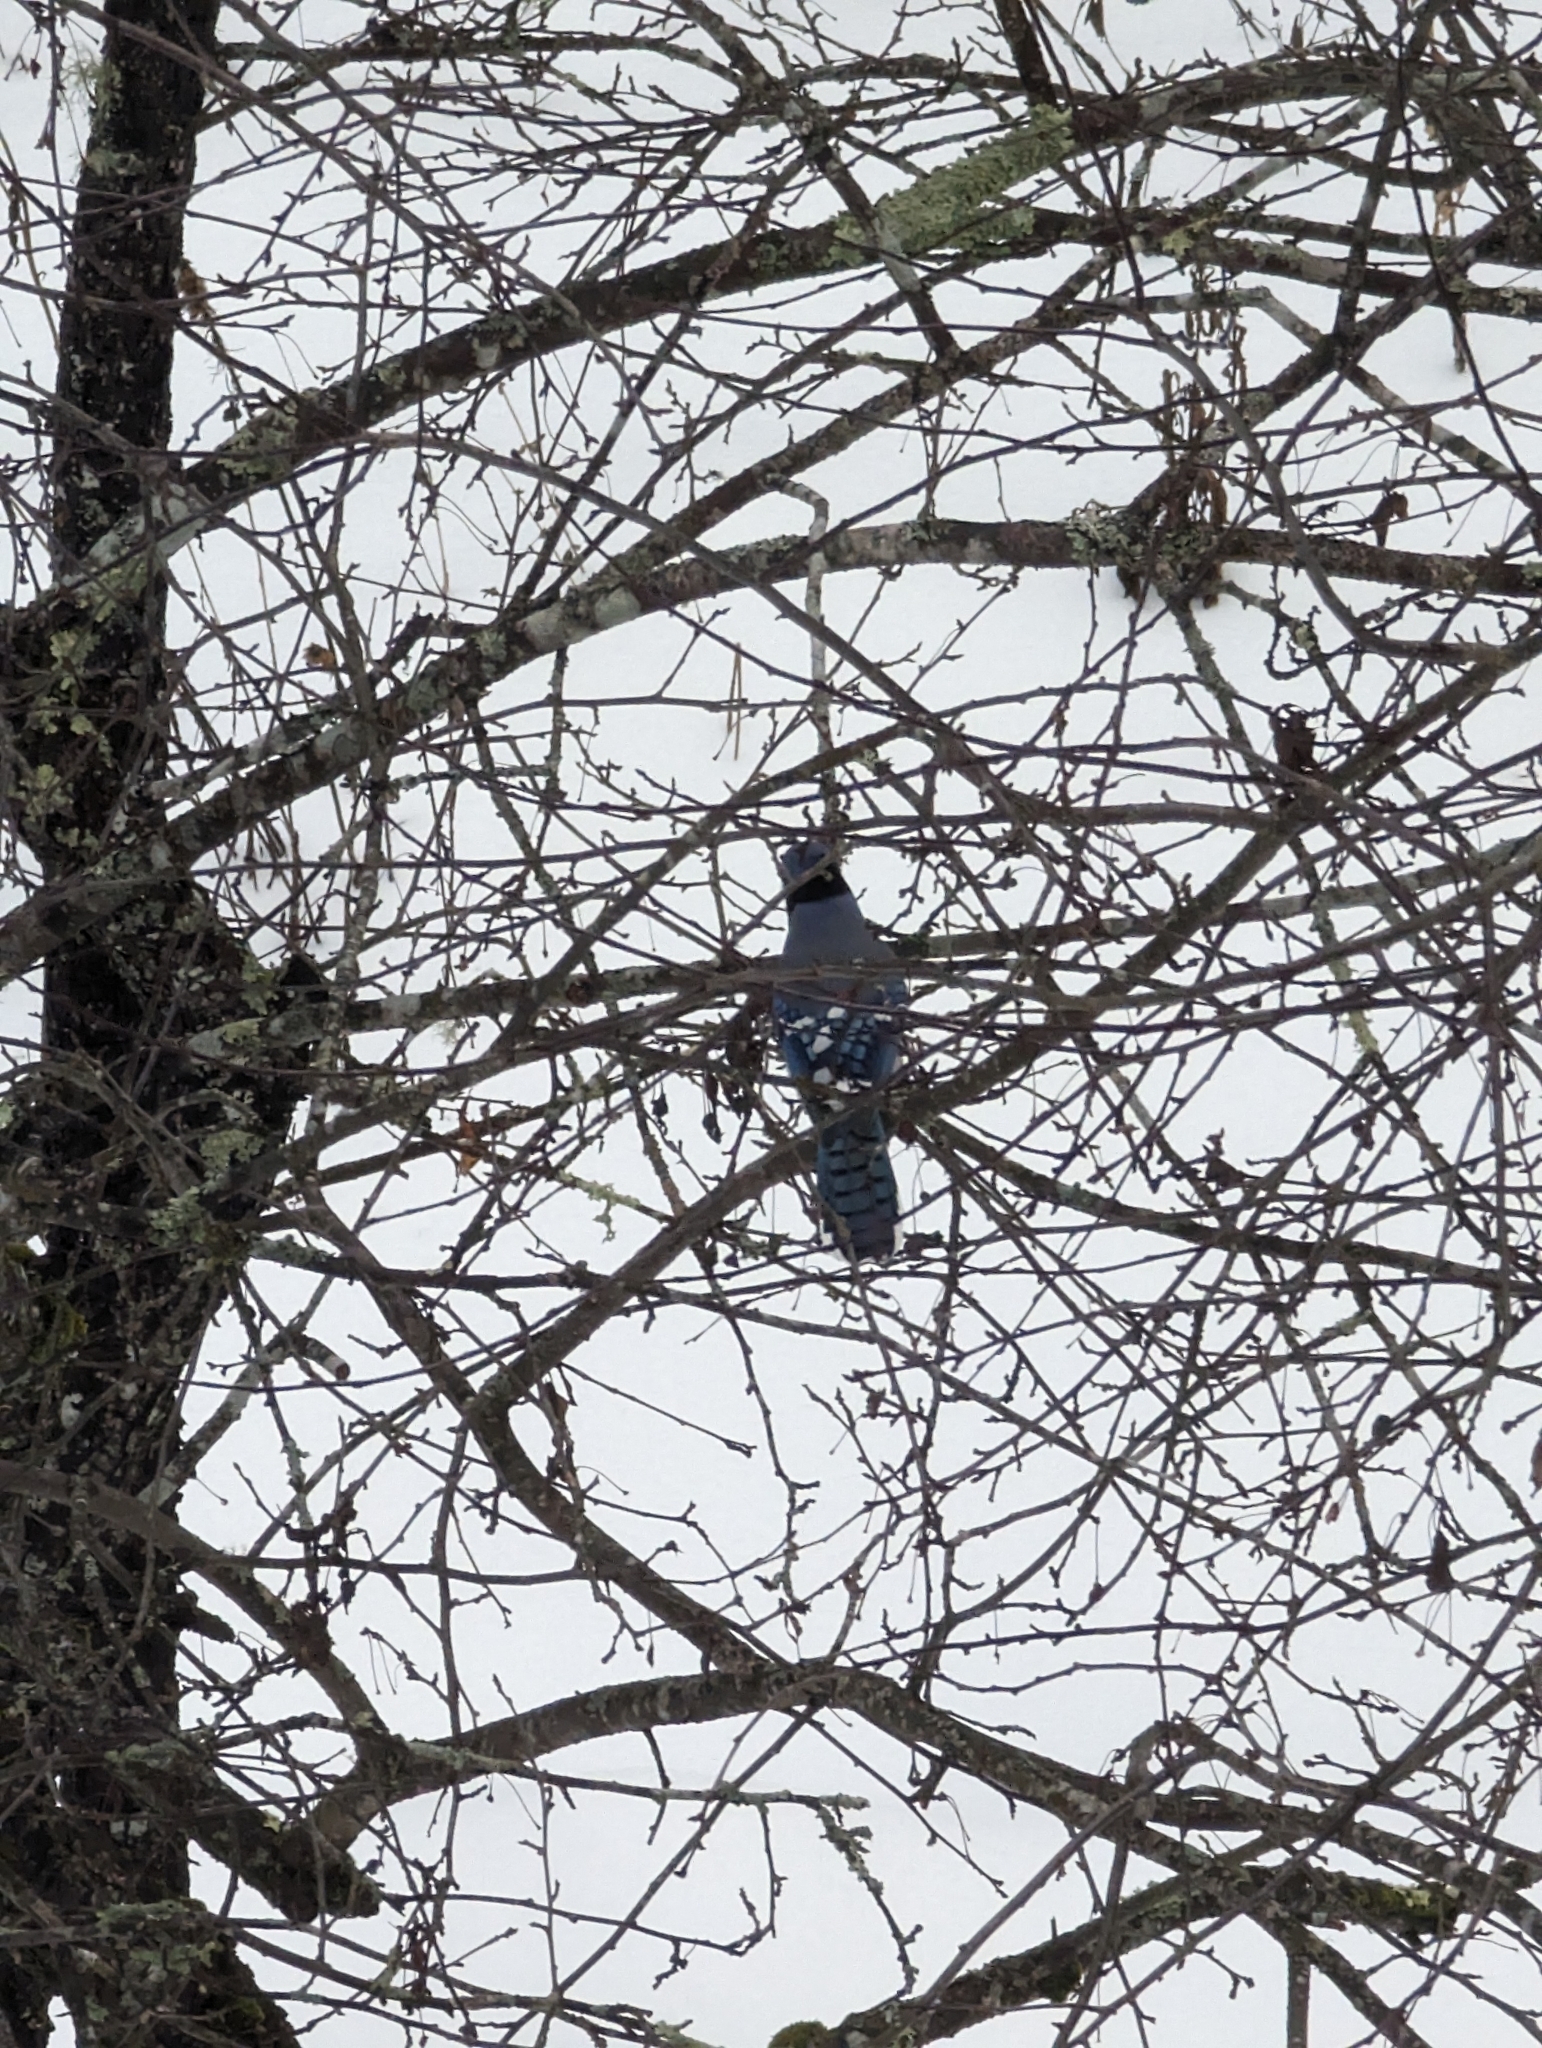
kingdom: Animalia
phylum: Chordata
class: Aves
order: Passeriformes
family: Corvidae
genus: Cyanocitta
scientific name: Cyanocitta cristata
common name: Blue jay
